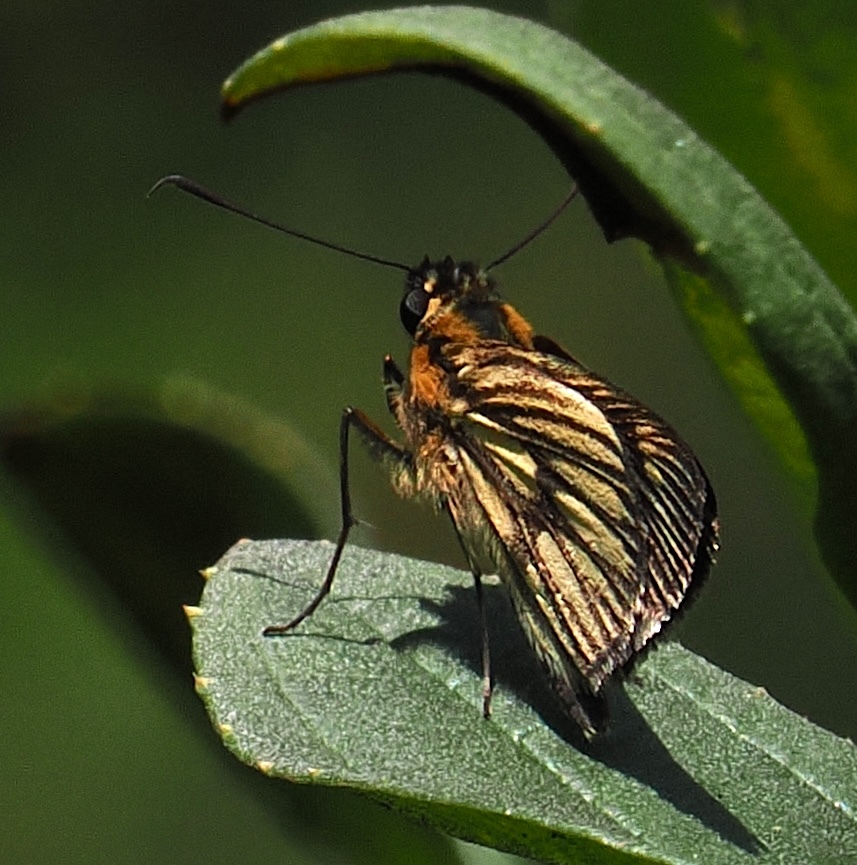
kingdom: Animalia
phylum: Arthropoda
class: Insecta
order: Lepidoptera
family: Hesperiidae
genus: Vehilius
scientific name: Vehilius clavicula
